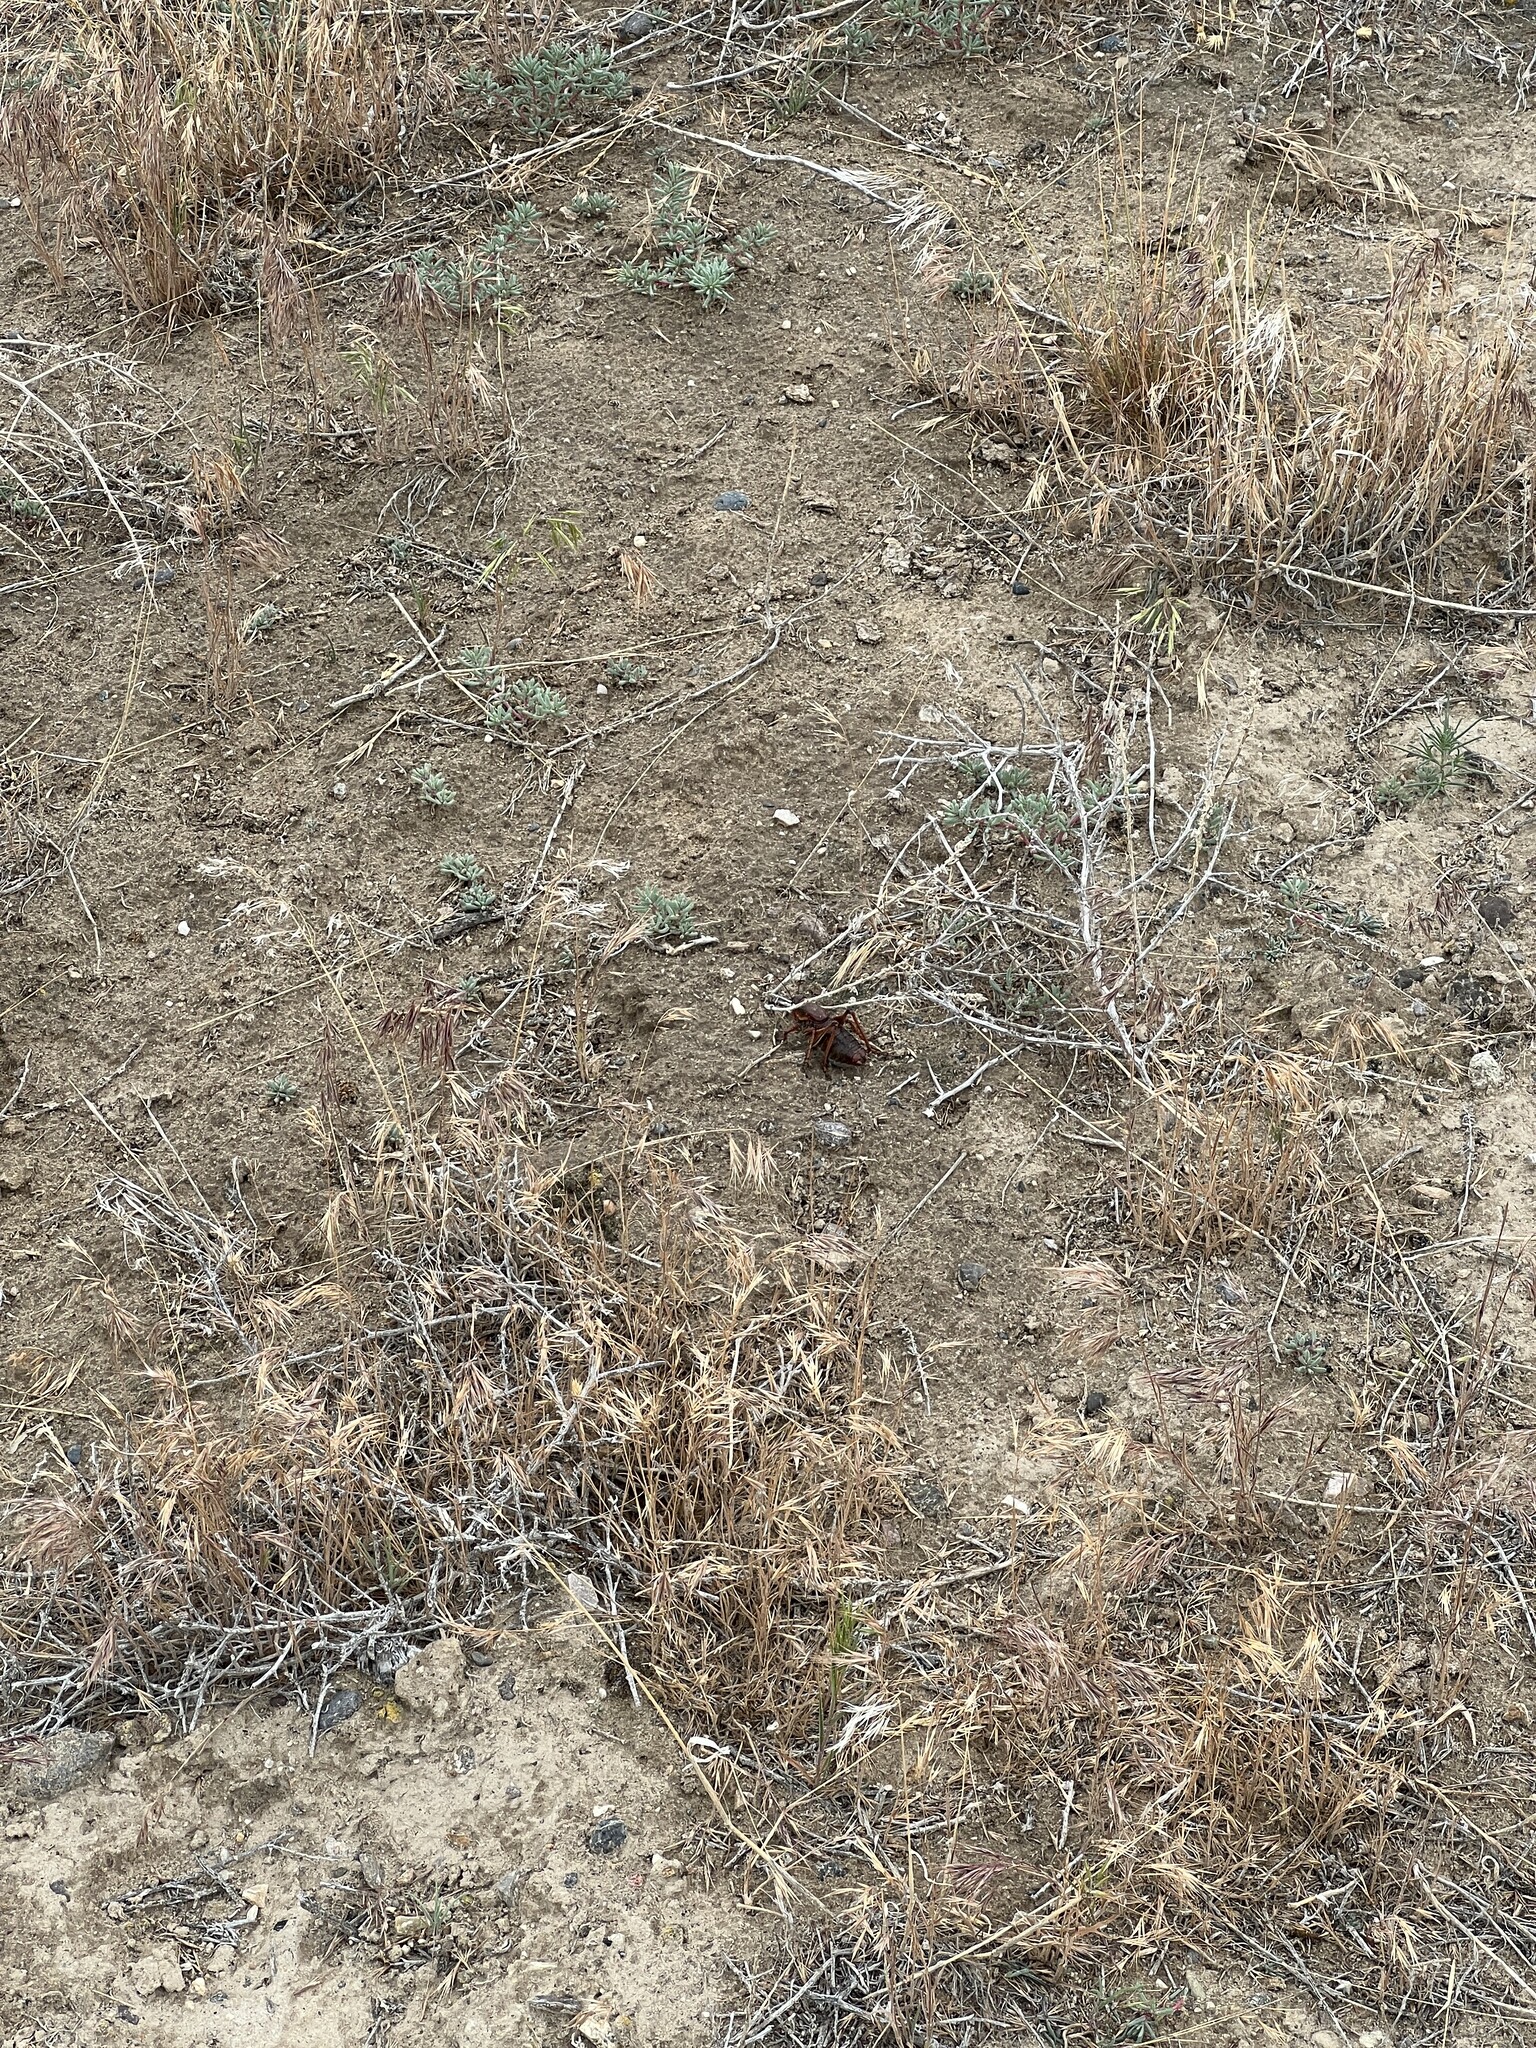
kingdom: Animalia
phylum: Arthropoda
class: Insecta
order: Orthoptera
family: Tettigoniidae
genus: Anabrus
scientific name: Anabrus simplex
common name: Mormon cricket
